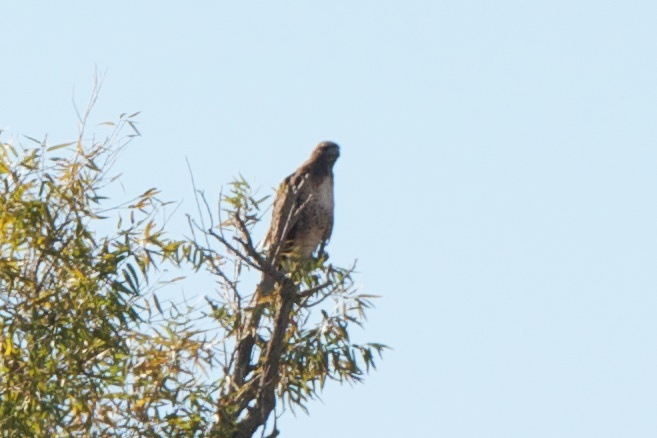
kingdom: Animalia
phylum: Chordata
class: Aves
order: Accipitriformes
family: Accipitridae
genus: Buteo
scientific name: Buteo jamaicensis
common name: Red-tailed hawk
